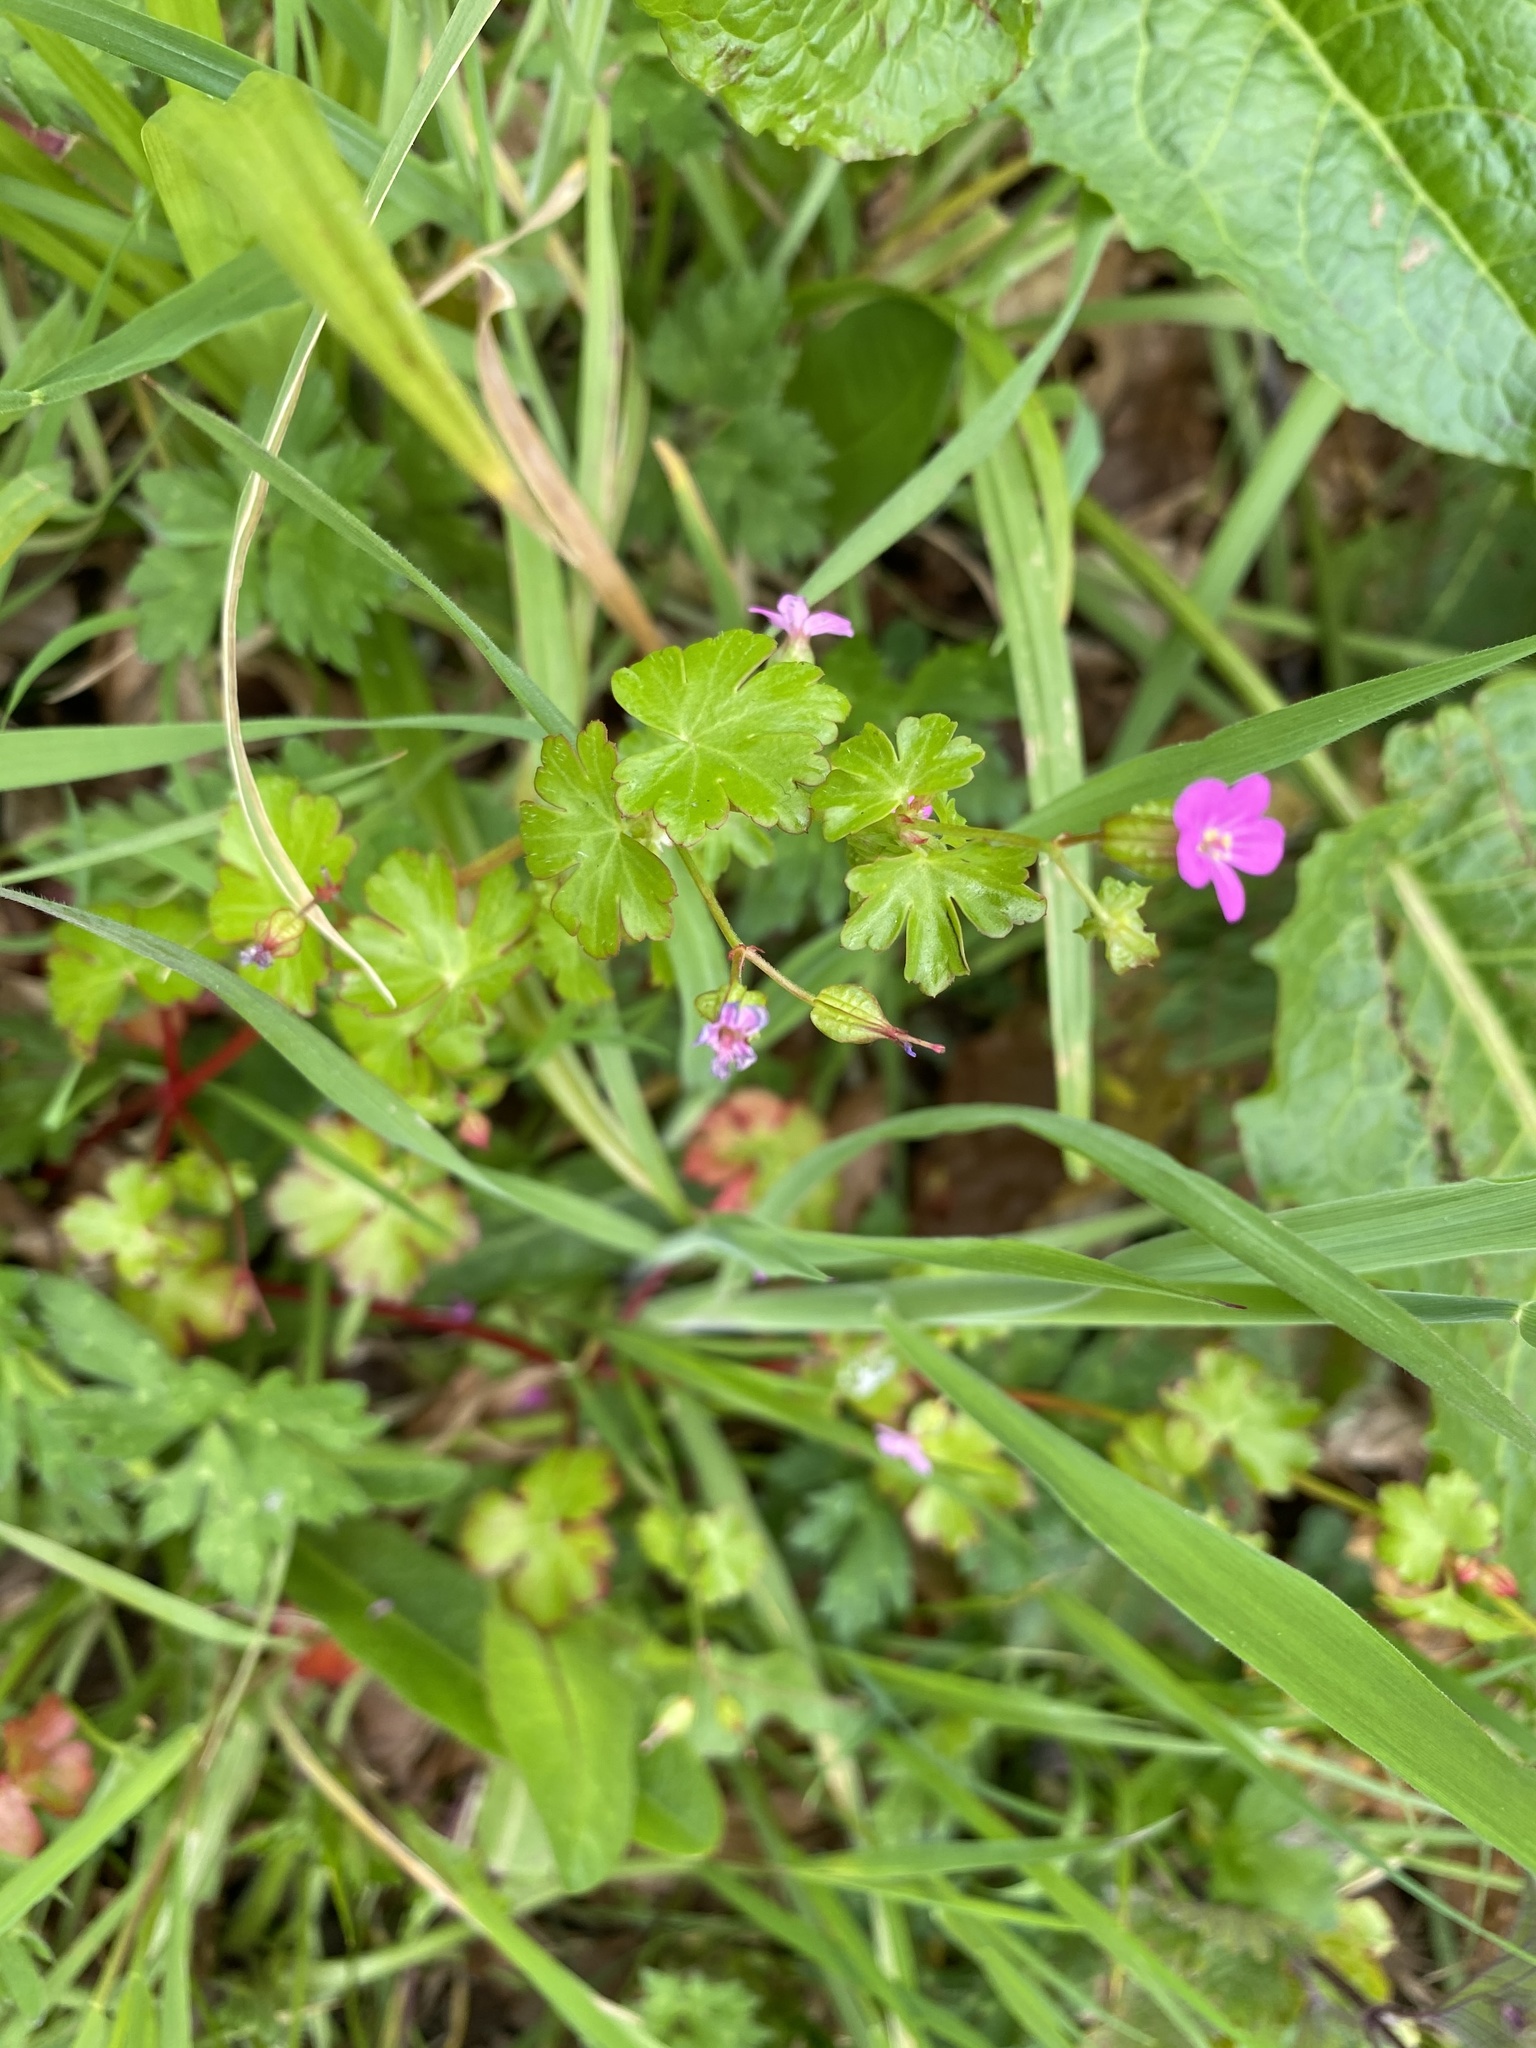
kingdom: Plantae
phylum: Tracheophyta
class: Magnoliopsida
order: Geraniales
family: Geraniaceae
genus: Geranium
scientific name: Geranium lucidum
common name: Shining crane's-bill
